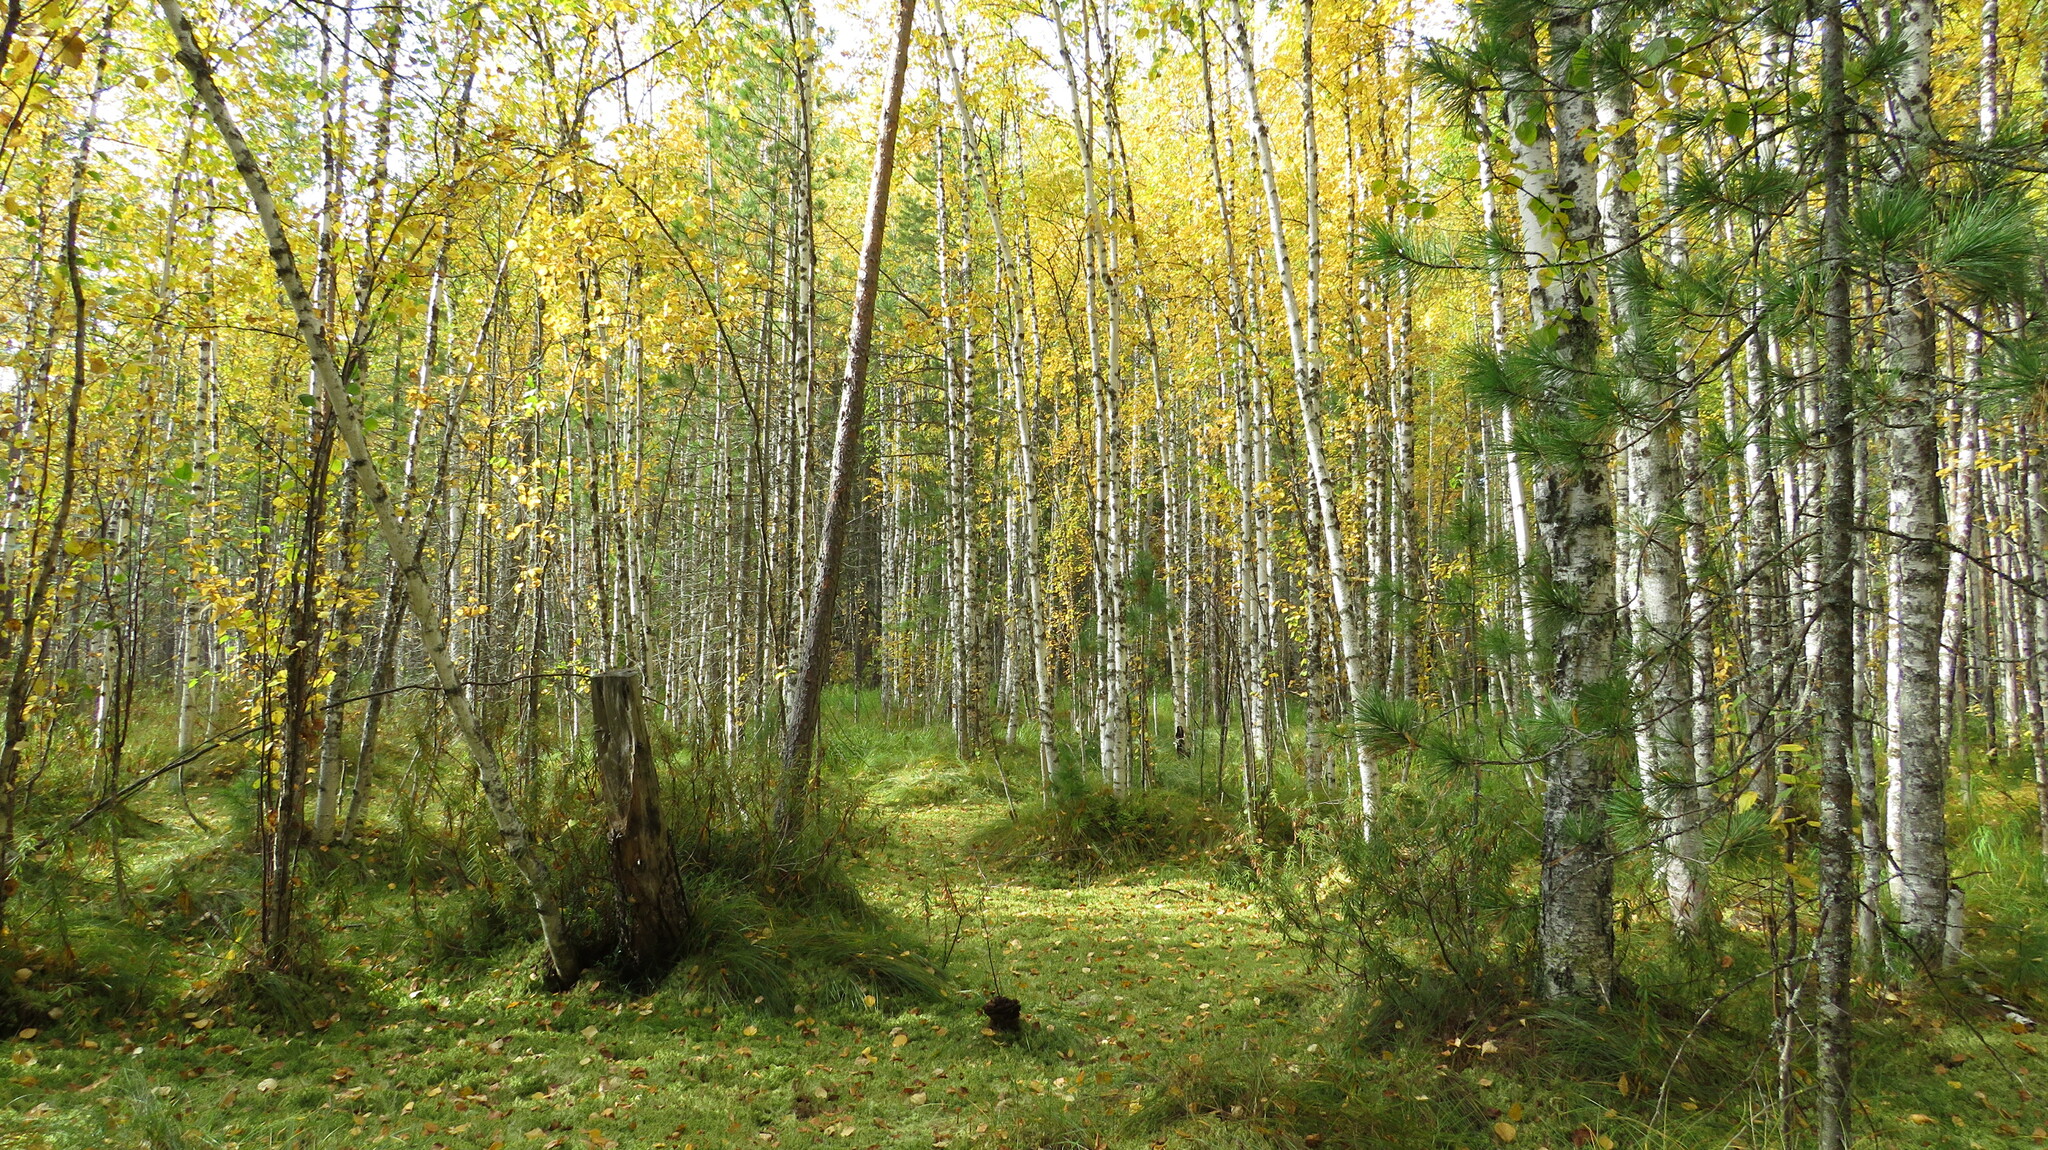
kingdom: Plantae
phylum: Tracheophyta
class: Magnoliopsida
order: Fagales
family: Betulaceae
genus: Betula
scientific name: Betula pendula
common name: Silver birch
